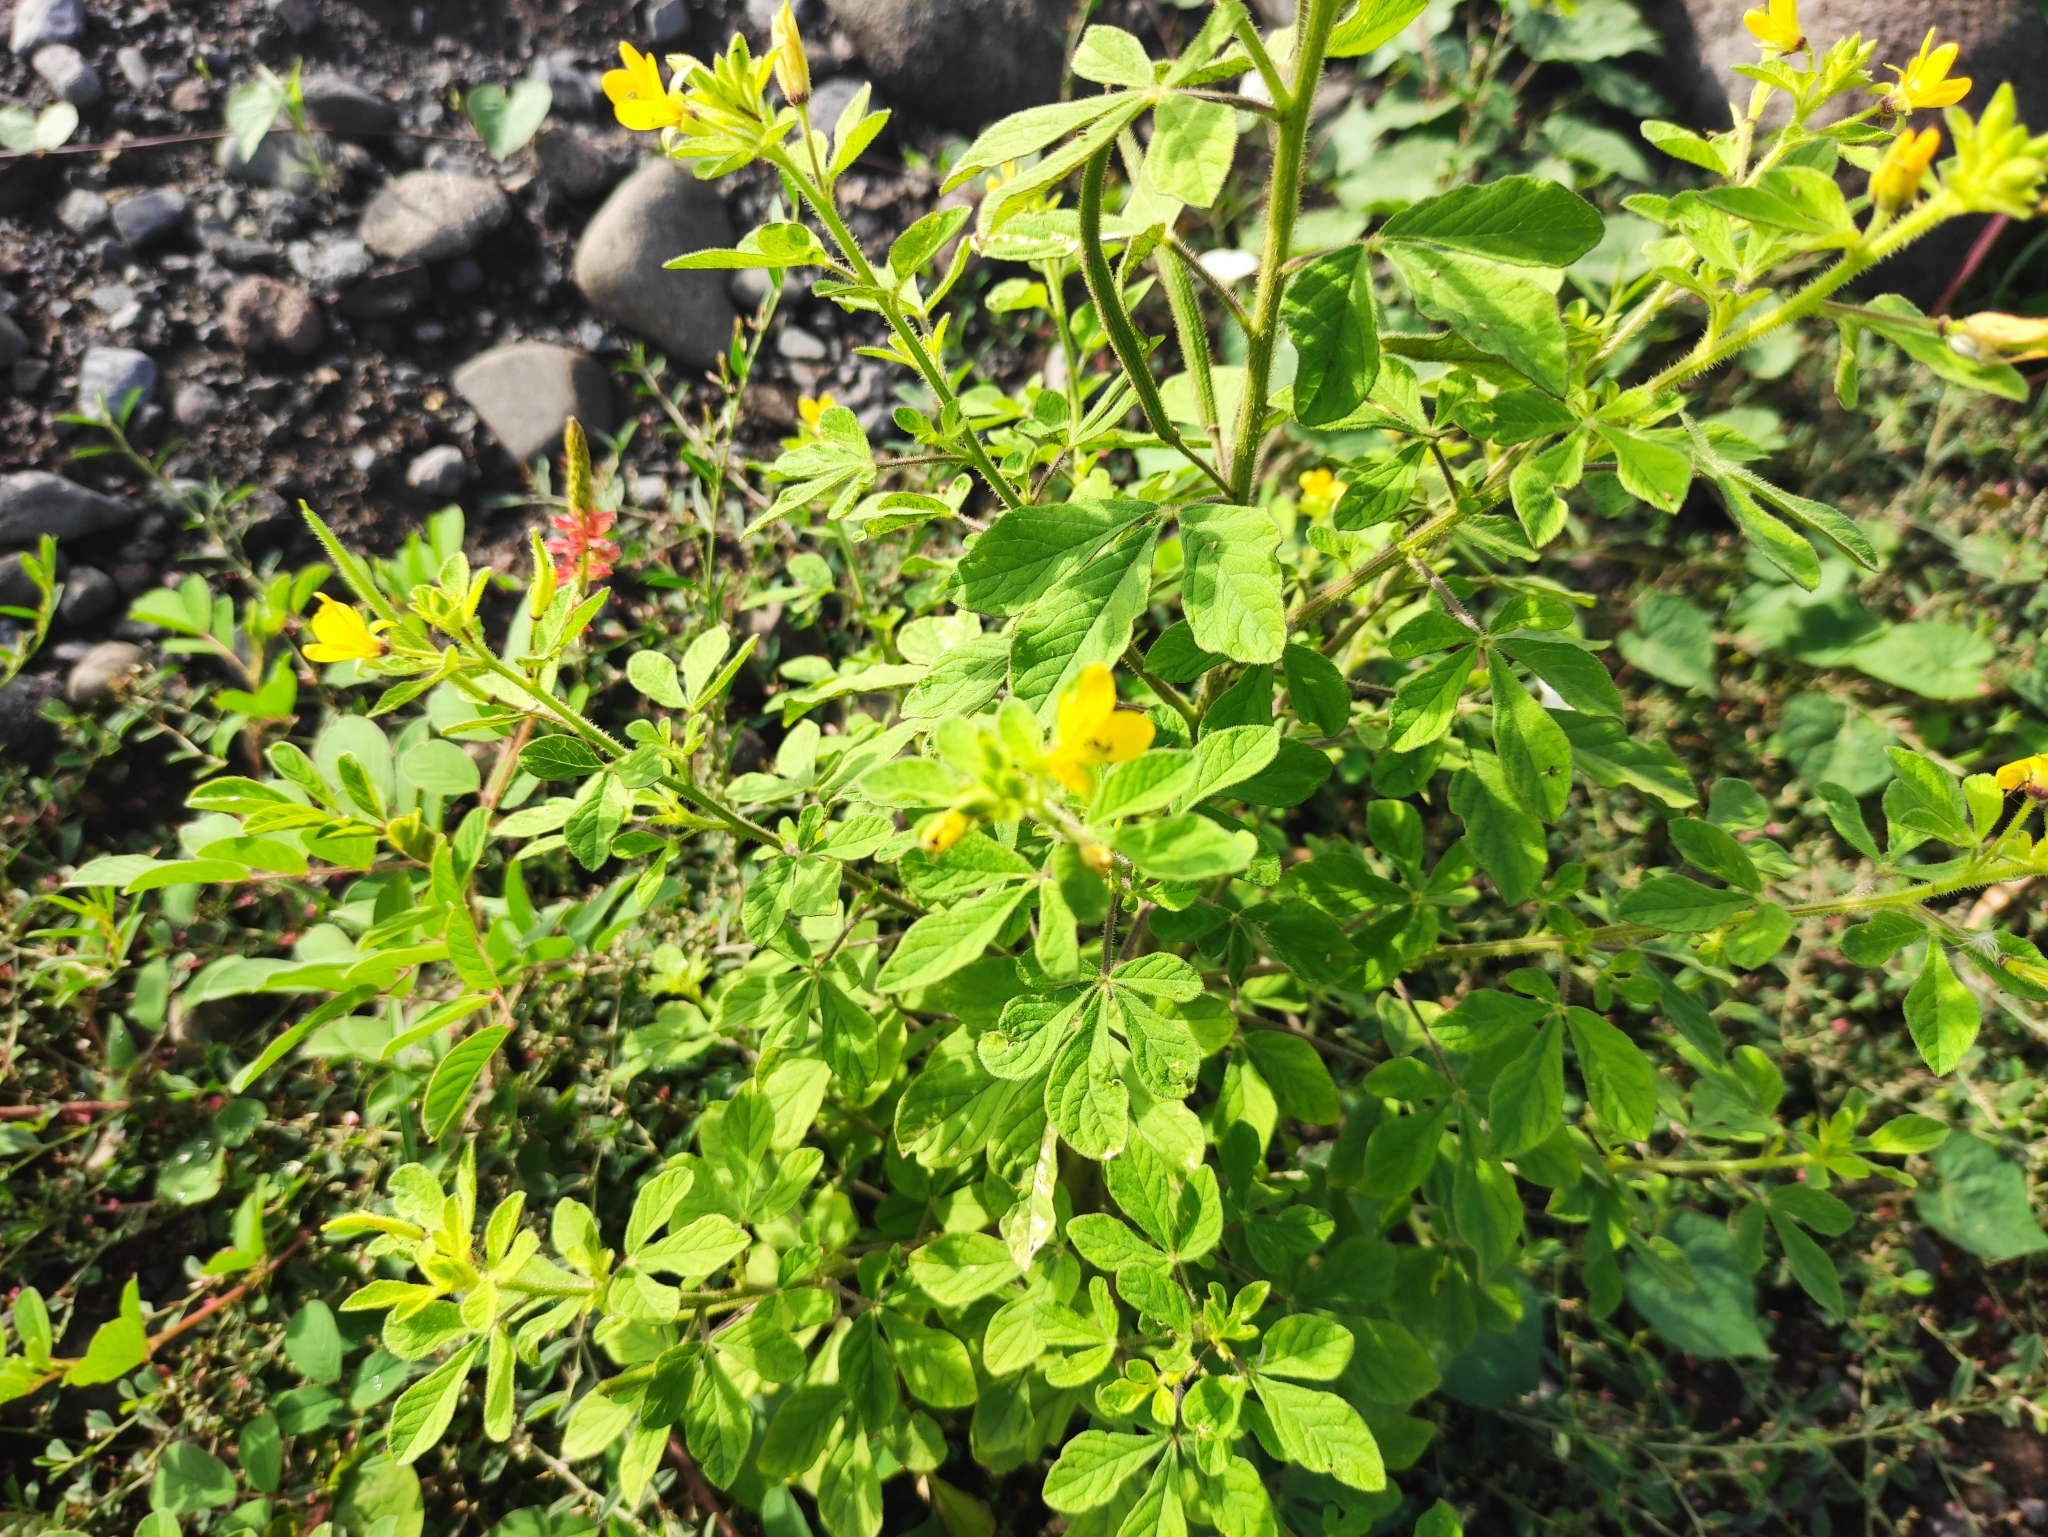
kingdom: Plantae
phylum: Tracheophyta
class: Magnoliopsida
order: Brassicales
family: Cleomaceae
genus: Arivela
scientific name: Arivela viscosa
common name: Asian spiderflower
